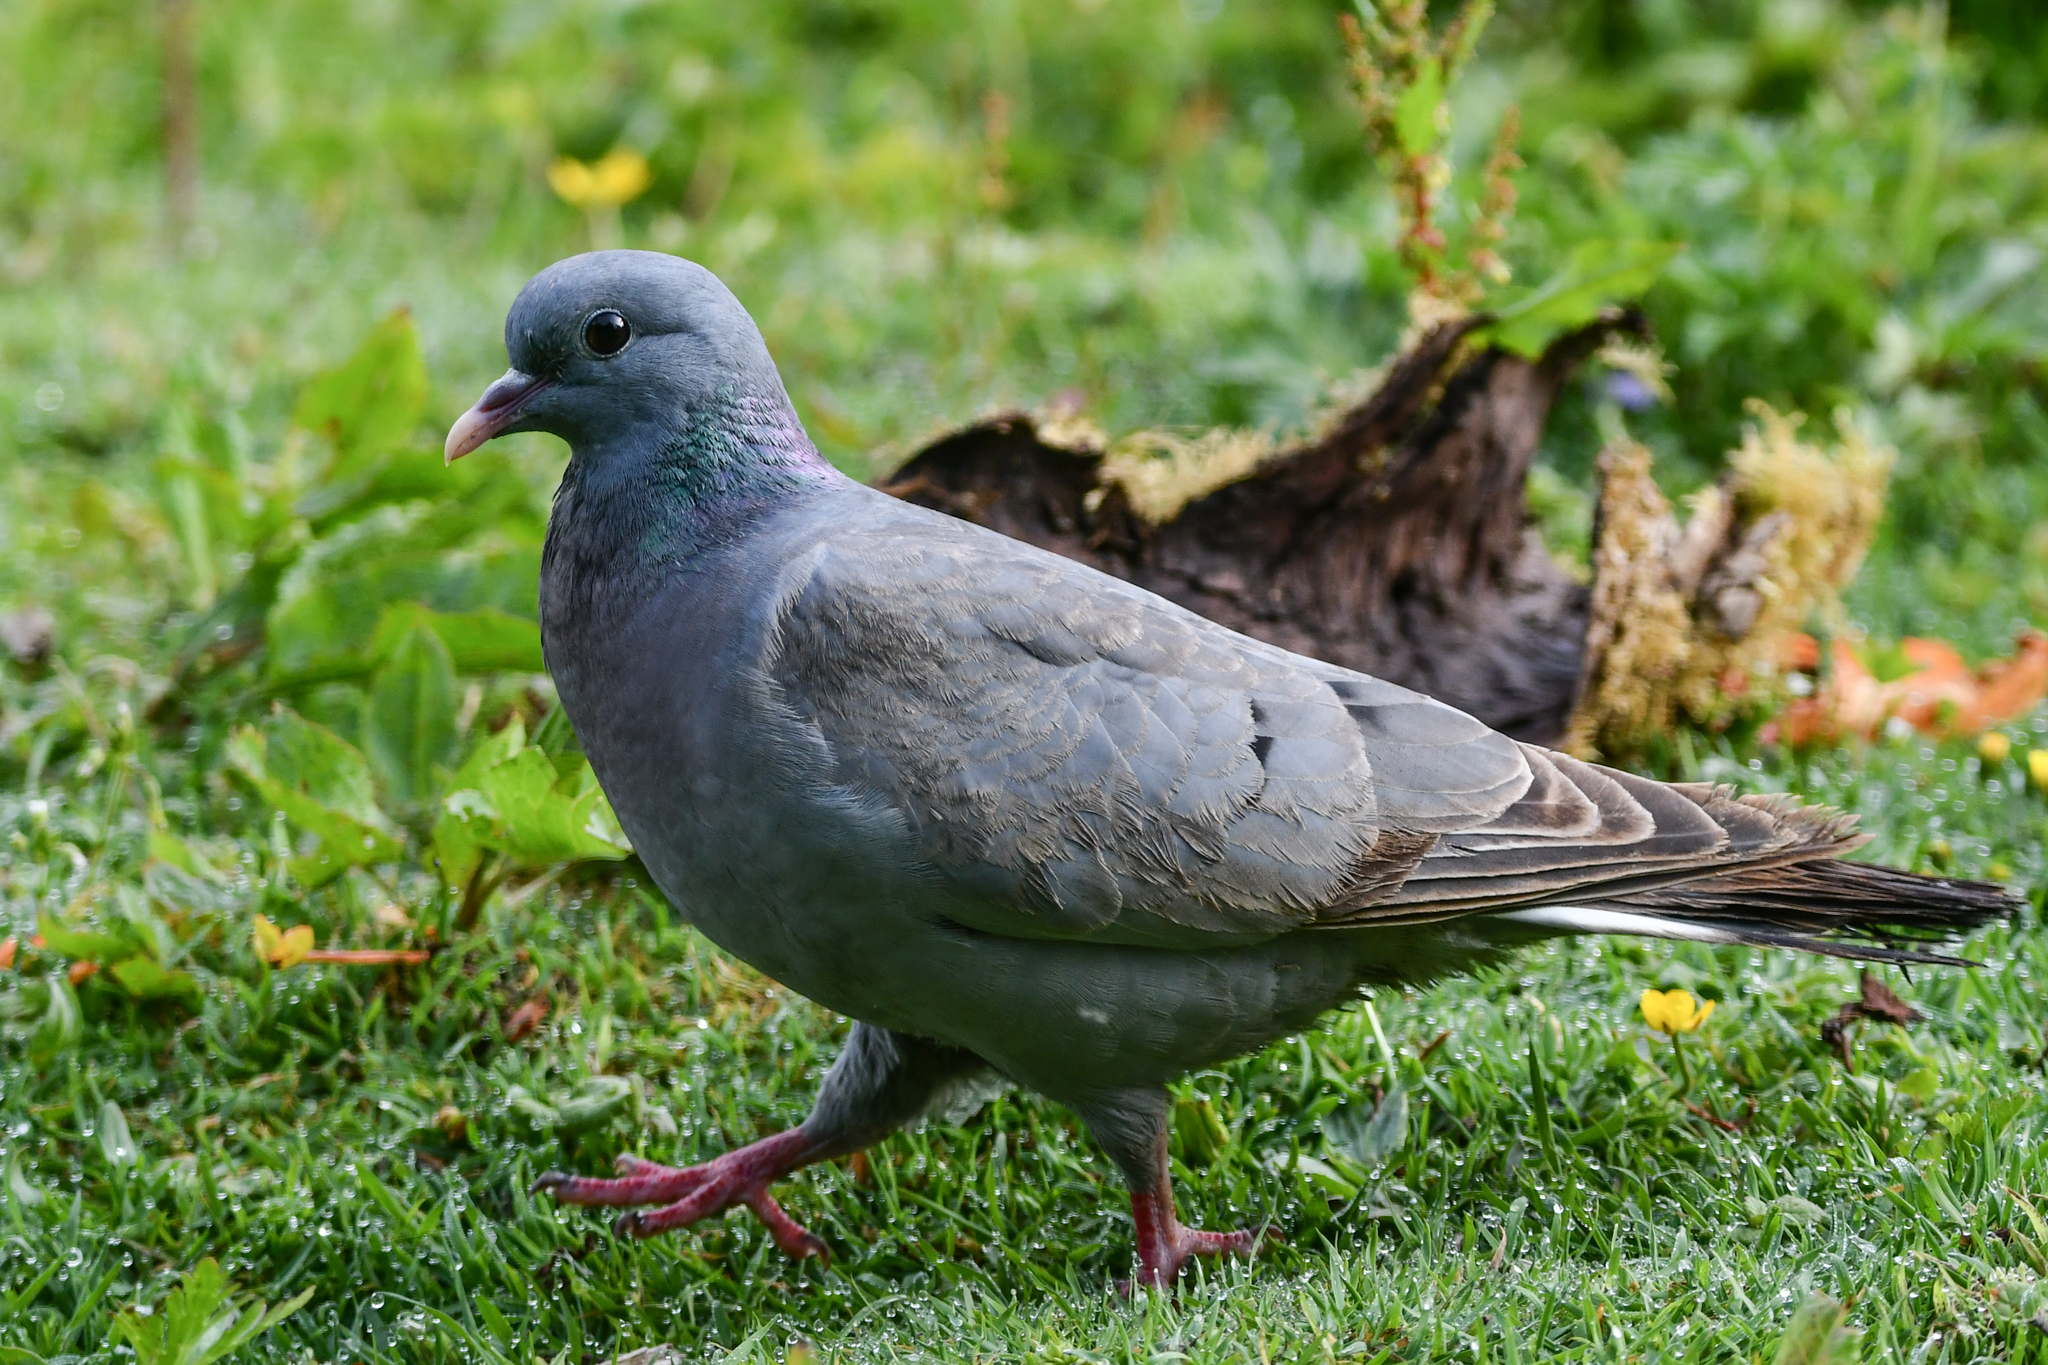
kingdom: Animalia
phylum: Chordata
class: Aves
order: Columbiformes
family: Columbidae
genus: Columba
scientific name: Columba oenas
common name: Stock dove
